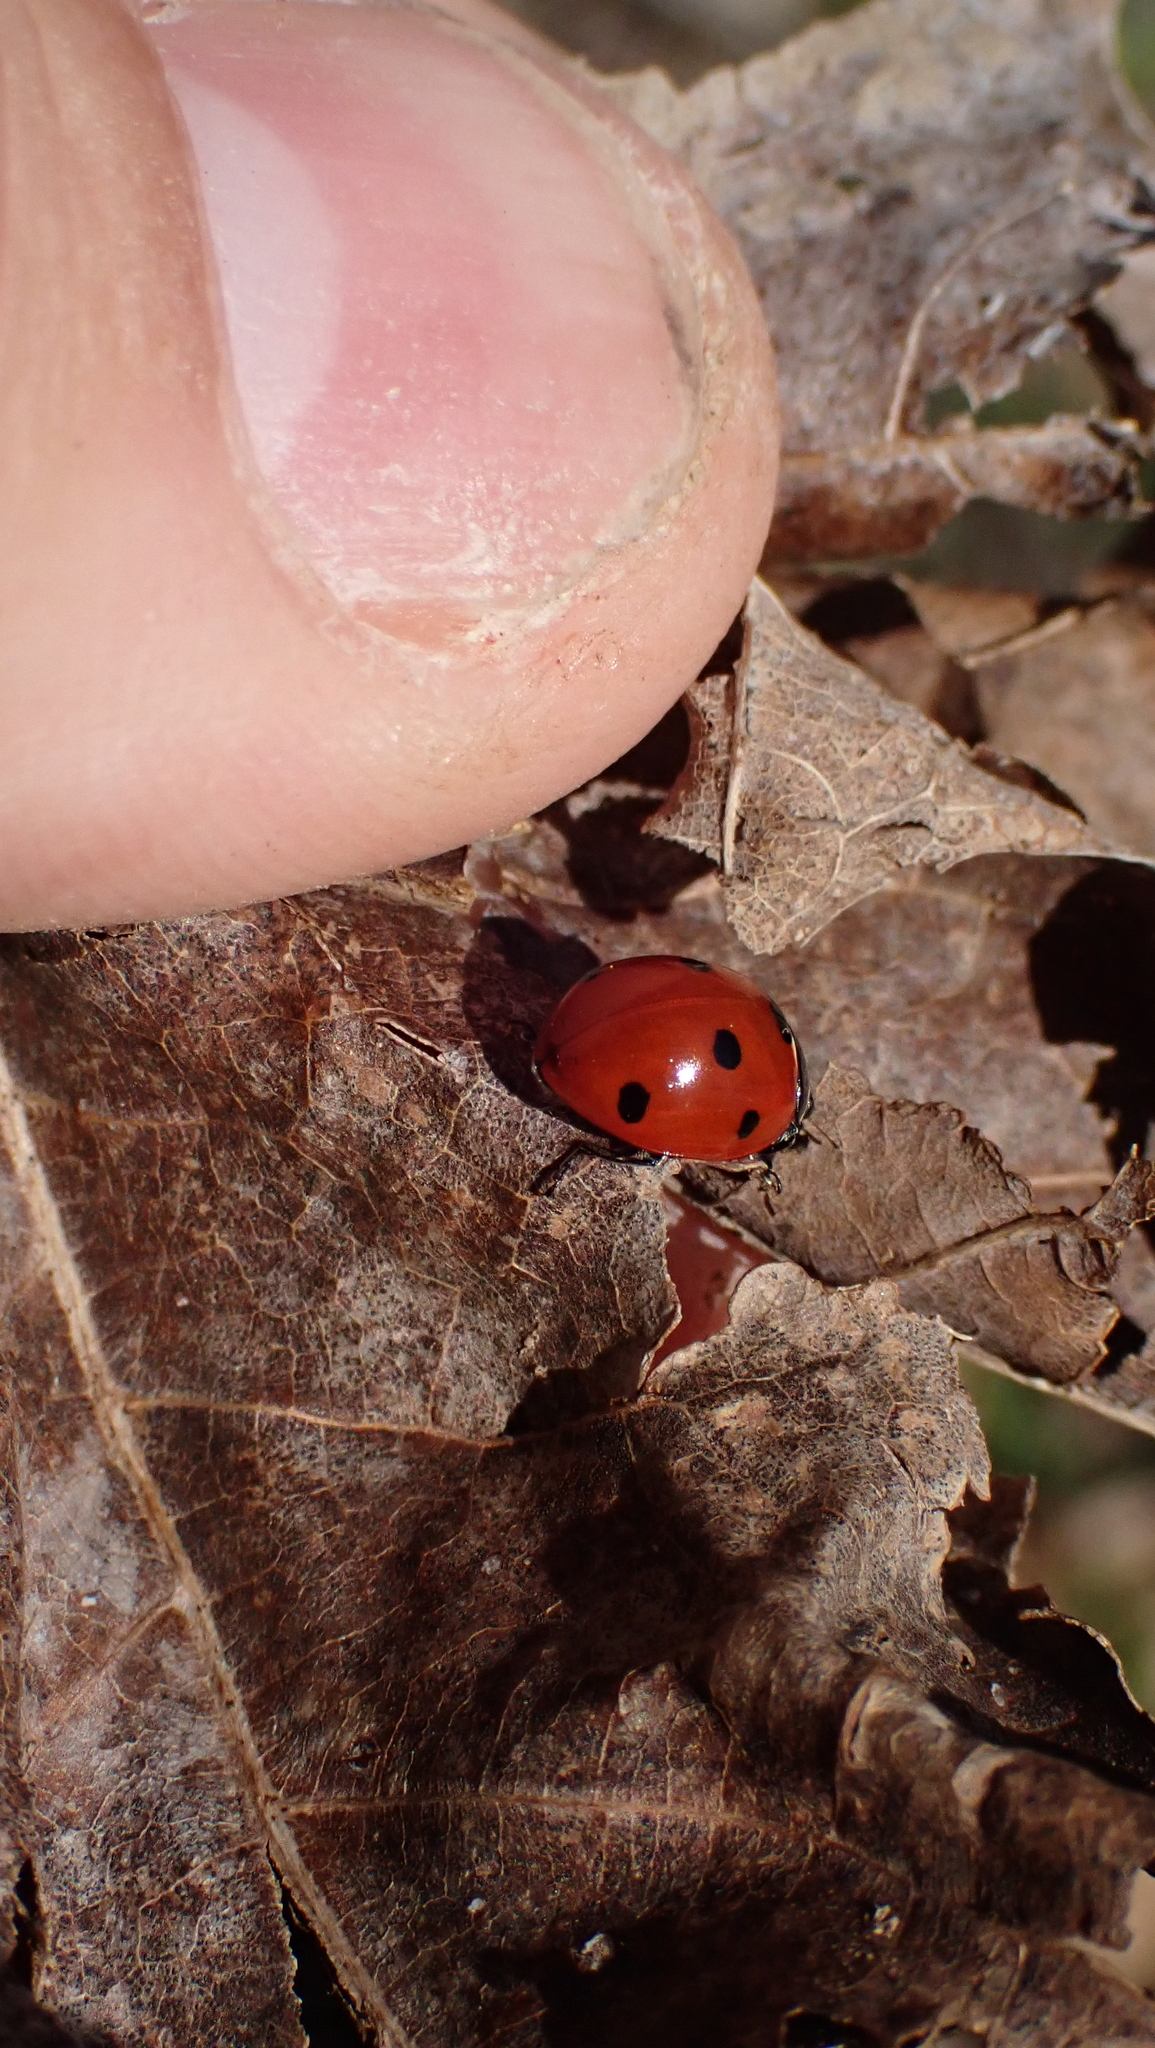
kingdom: Animalia
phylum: Arthropoda
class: Insecta
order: Coleoptera
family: Coccinellidae
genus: Coccinella
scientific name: Coccinella septempunctata
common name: Sevenspotted lady beetle
